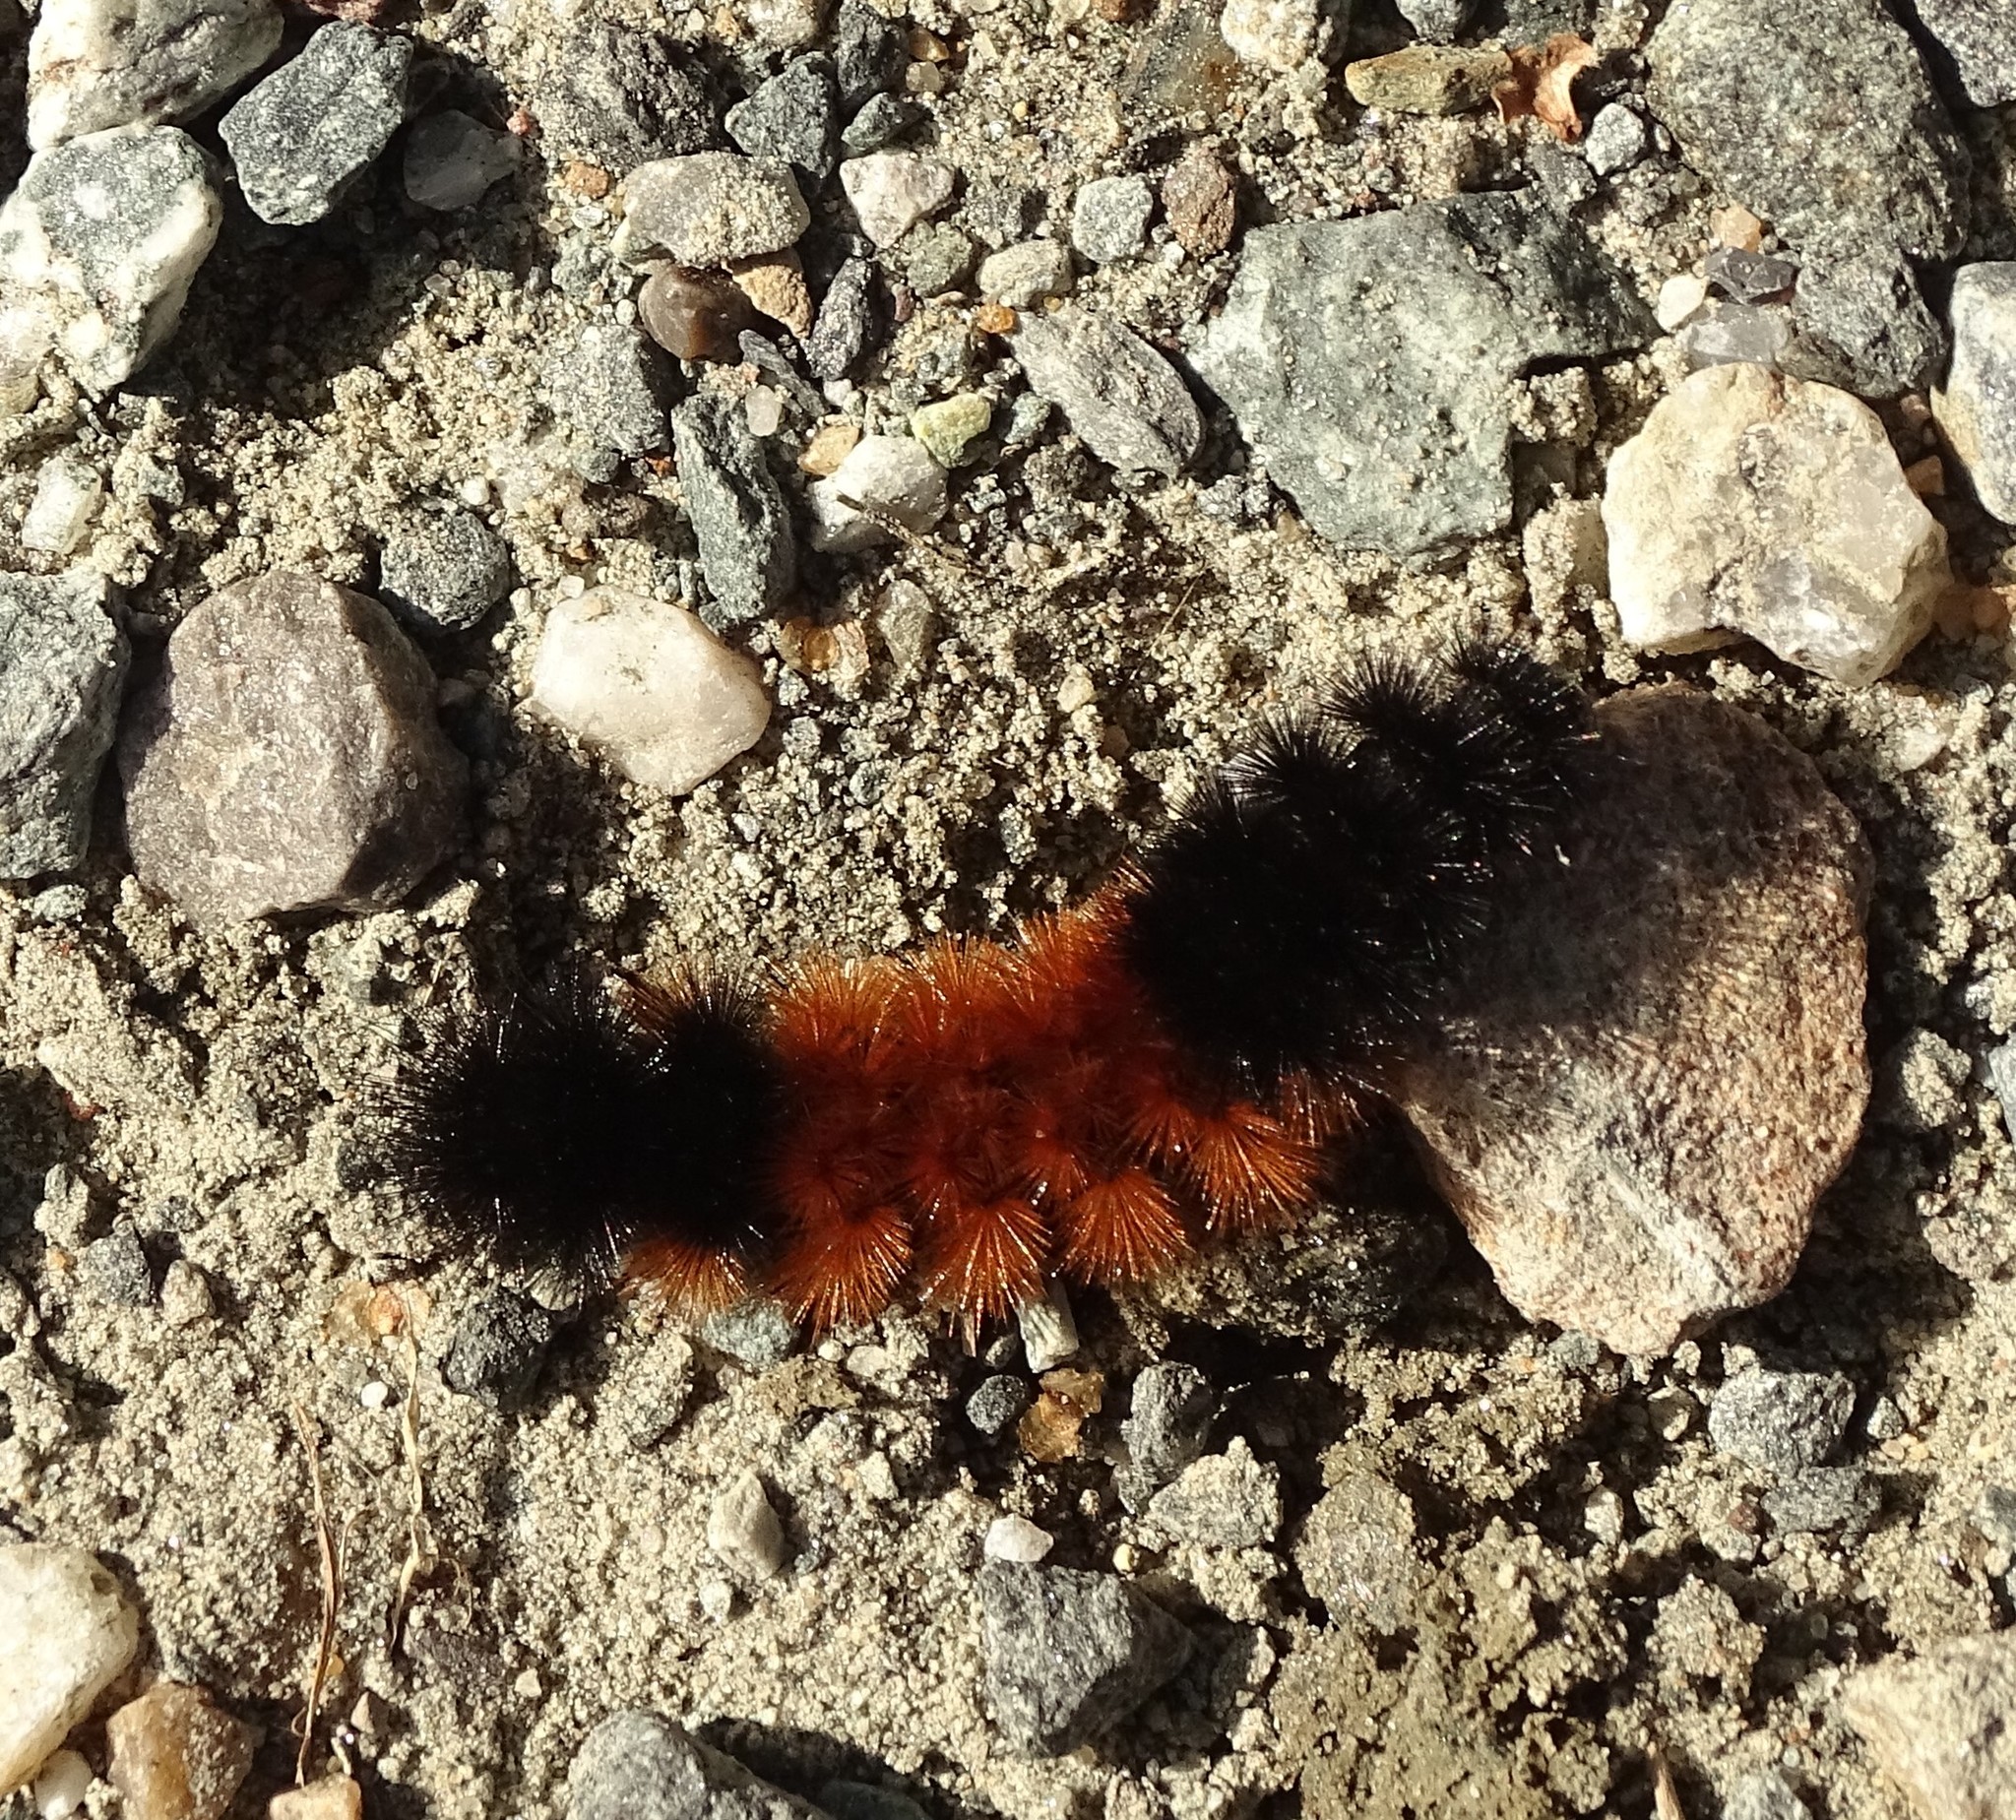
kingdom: Animalia
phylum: Arthropoda
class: Insecta
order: Lepidoptera
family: Erebidae
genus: Pyrrharctia
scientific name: Pyrrharctia isabella
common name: Isabella tiger moth
